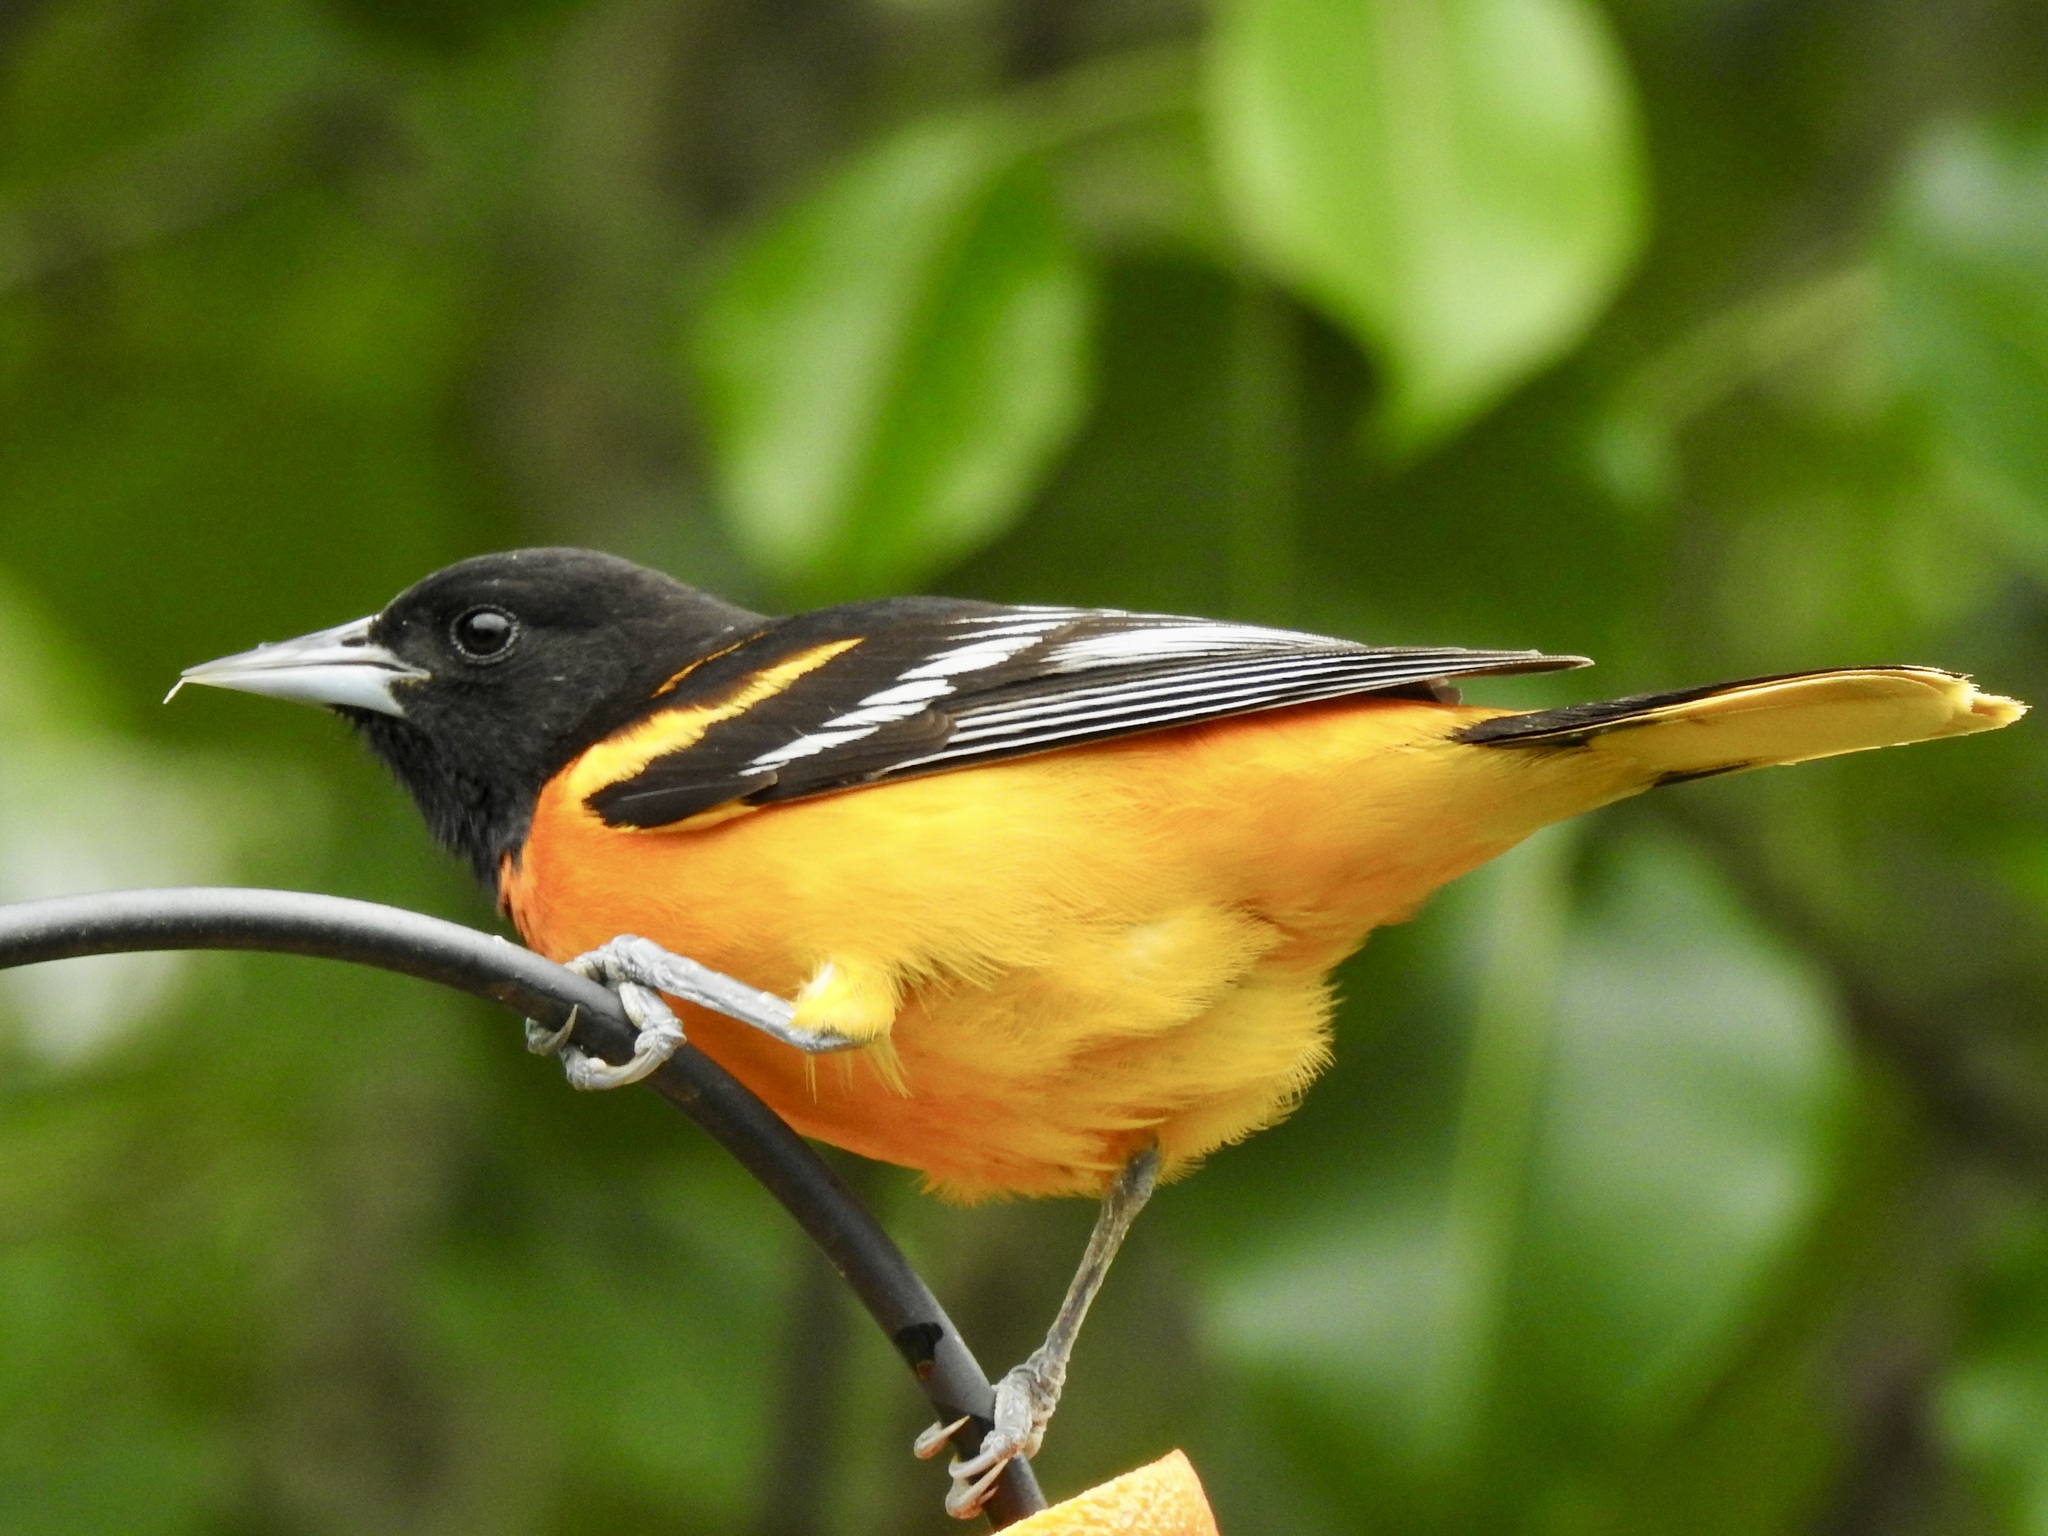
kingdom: Animalia
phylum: Chordata
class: Aves
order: Passeriformes
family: Icteridae
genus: Icterus
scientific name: Icterus galbula
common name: Baltimore oriole
